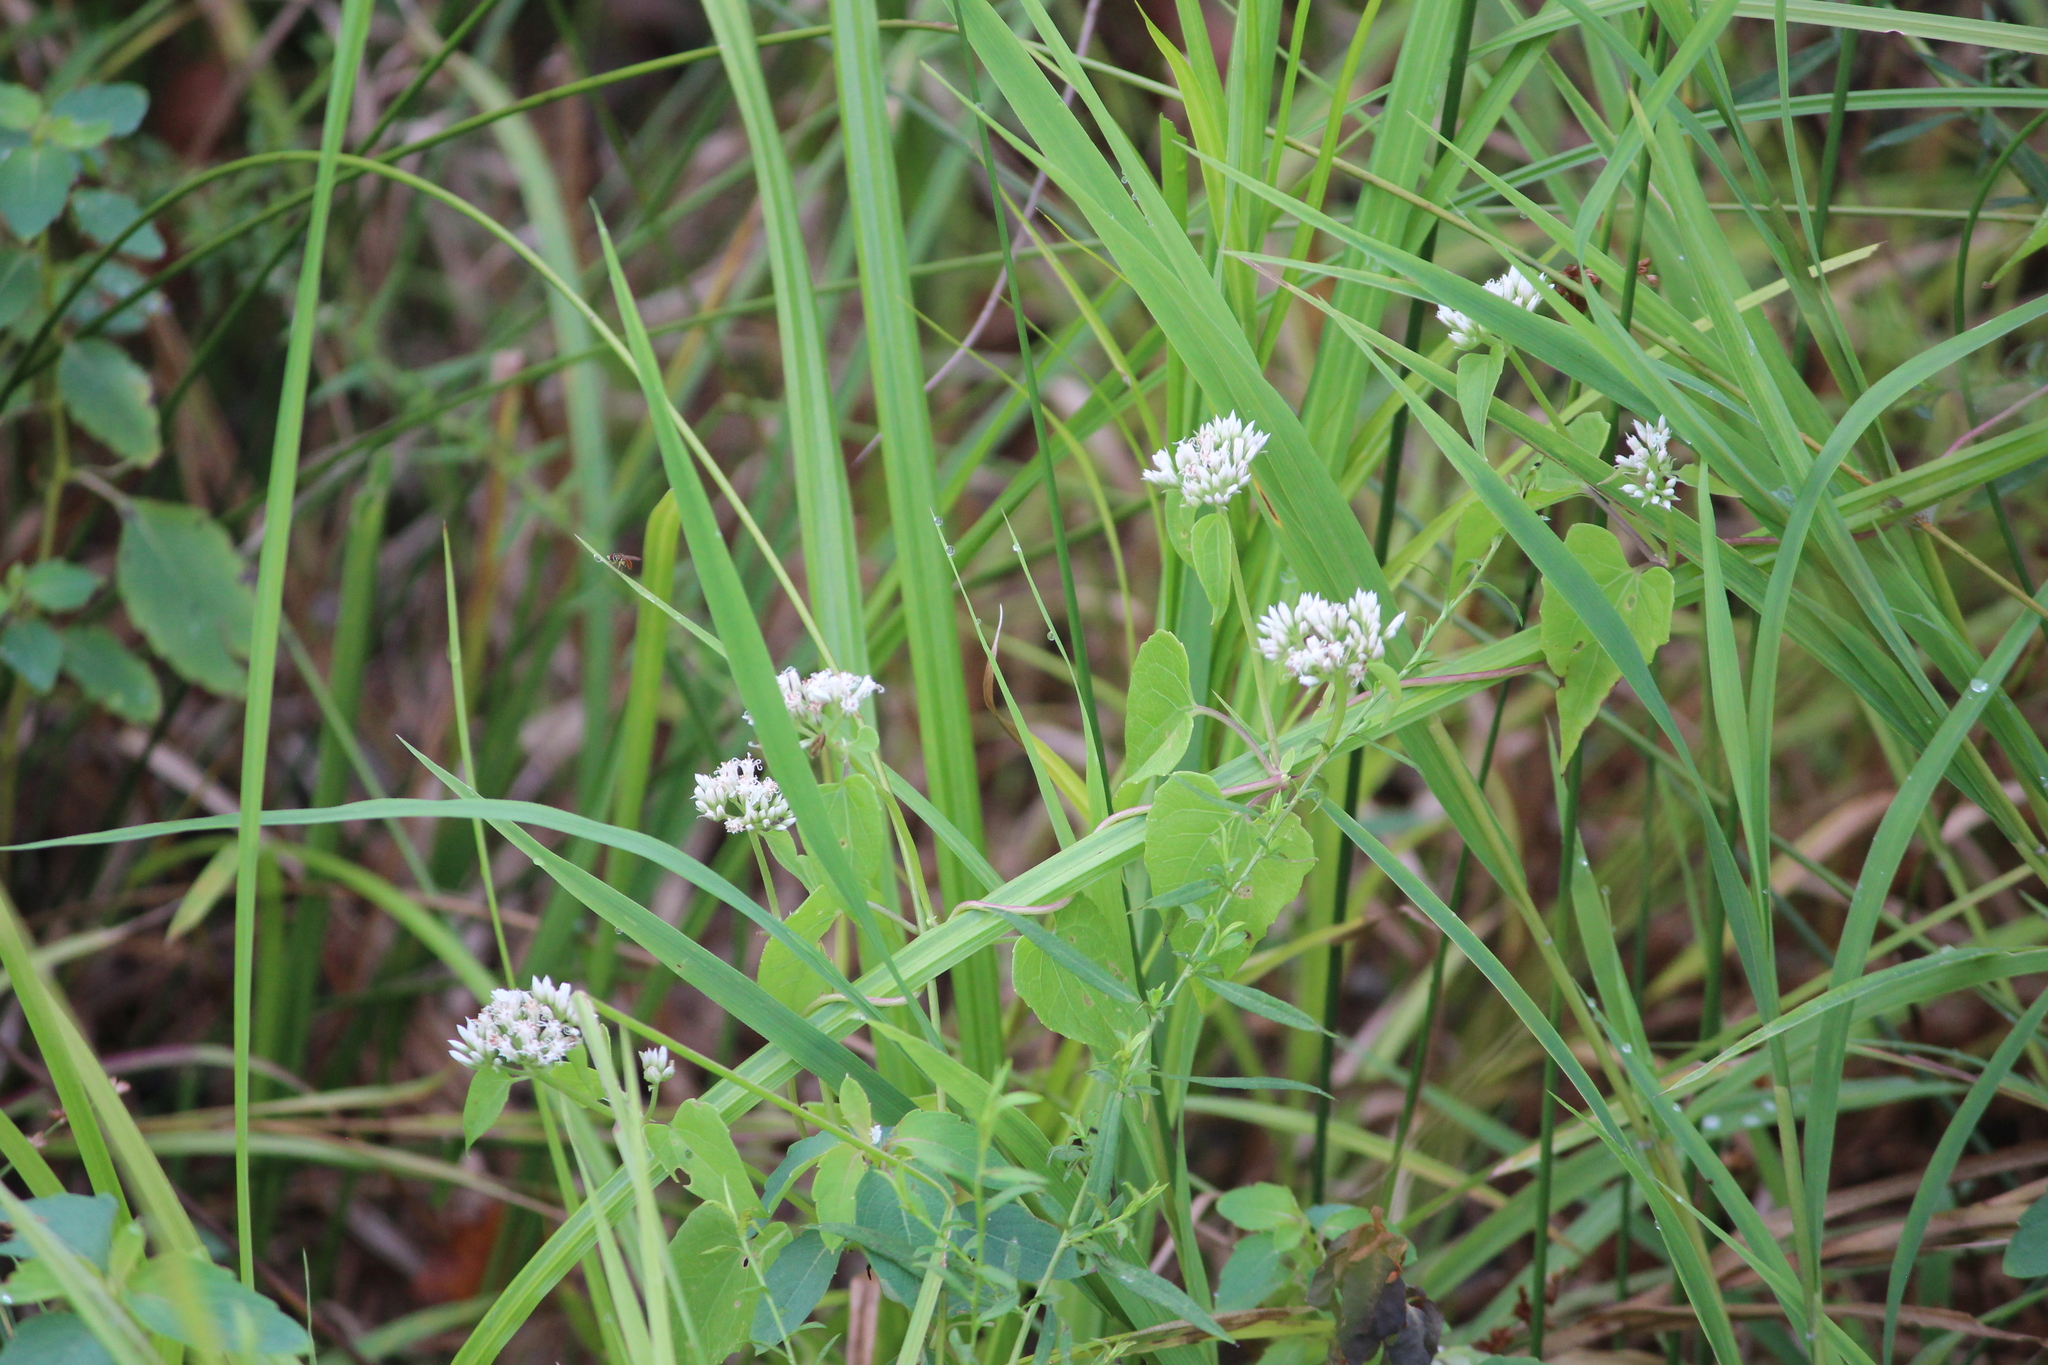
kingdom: Plantae
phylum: Tracheophyta
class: Magnoliopsida
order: Asterales
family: Asteraceae
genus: Mikania
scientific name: Mikania scandens
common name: Climbing hempvine
